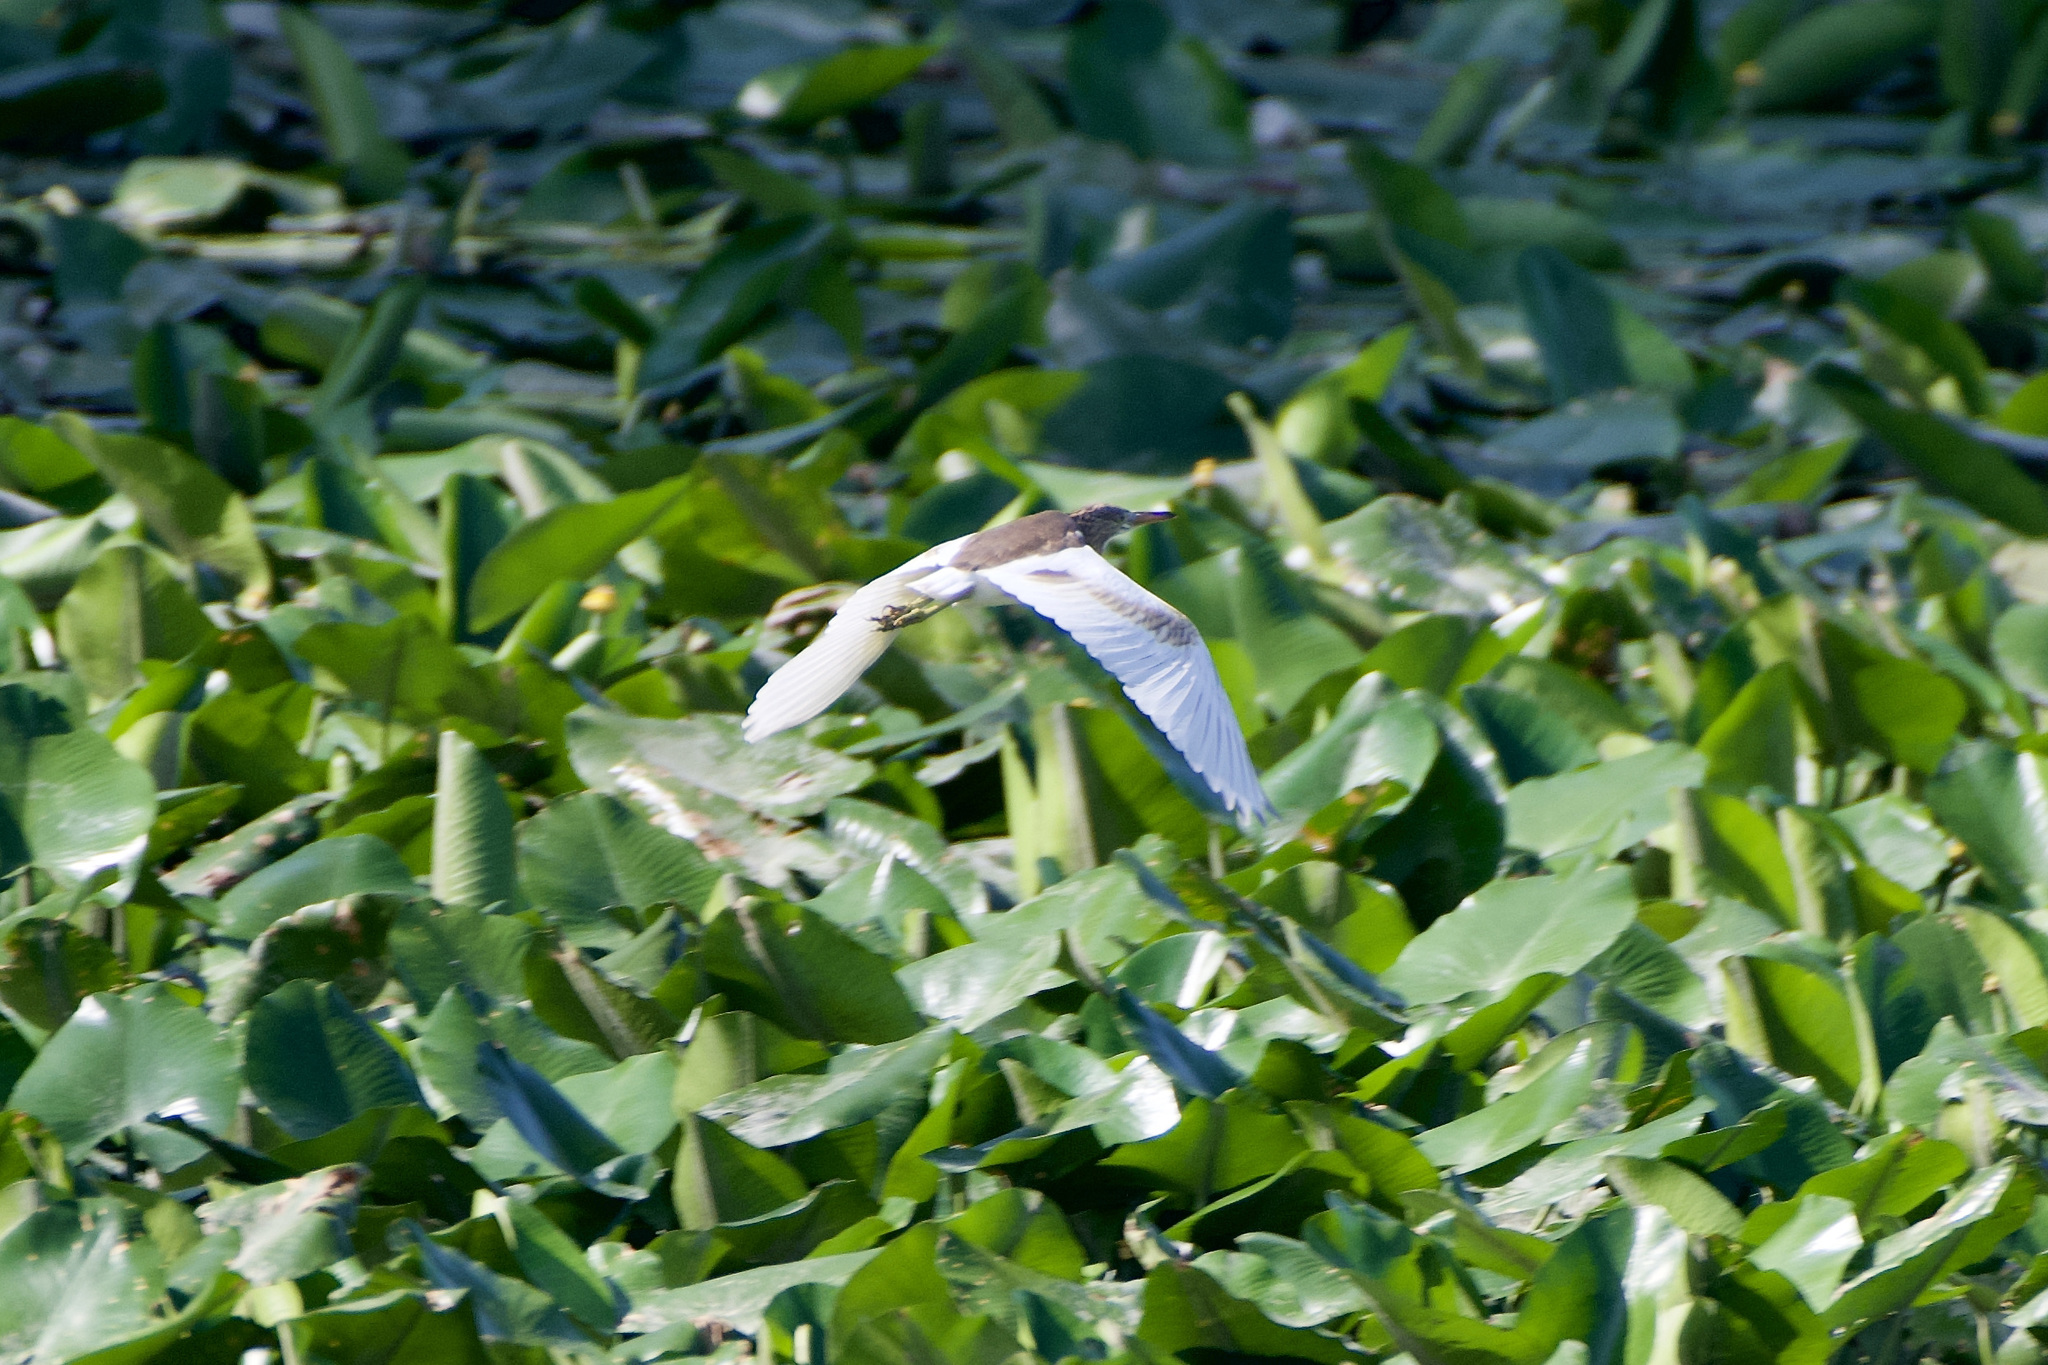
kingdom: Animalia
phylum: Chordata
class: Aves
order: Pelecaniformes
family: Ardeidae
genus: Ardeola
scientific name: Ardeola ralloides
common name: Squacco heron
